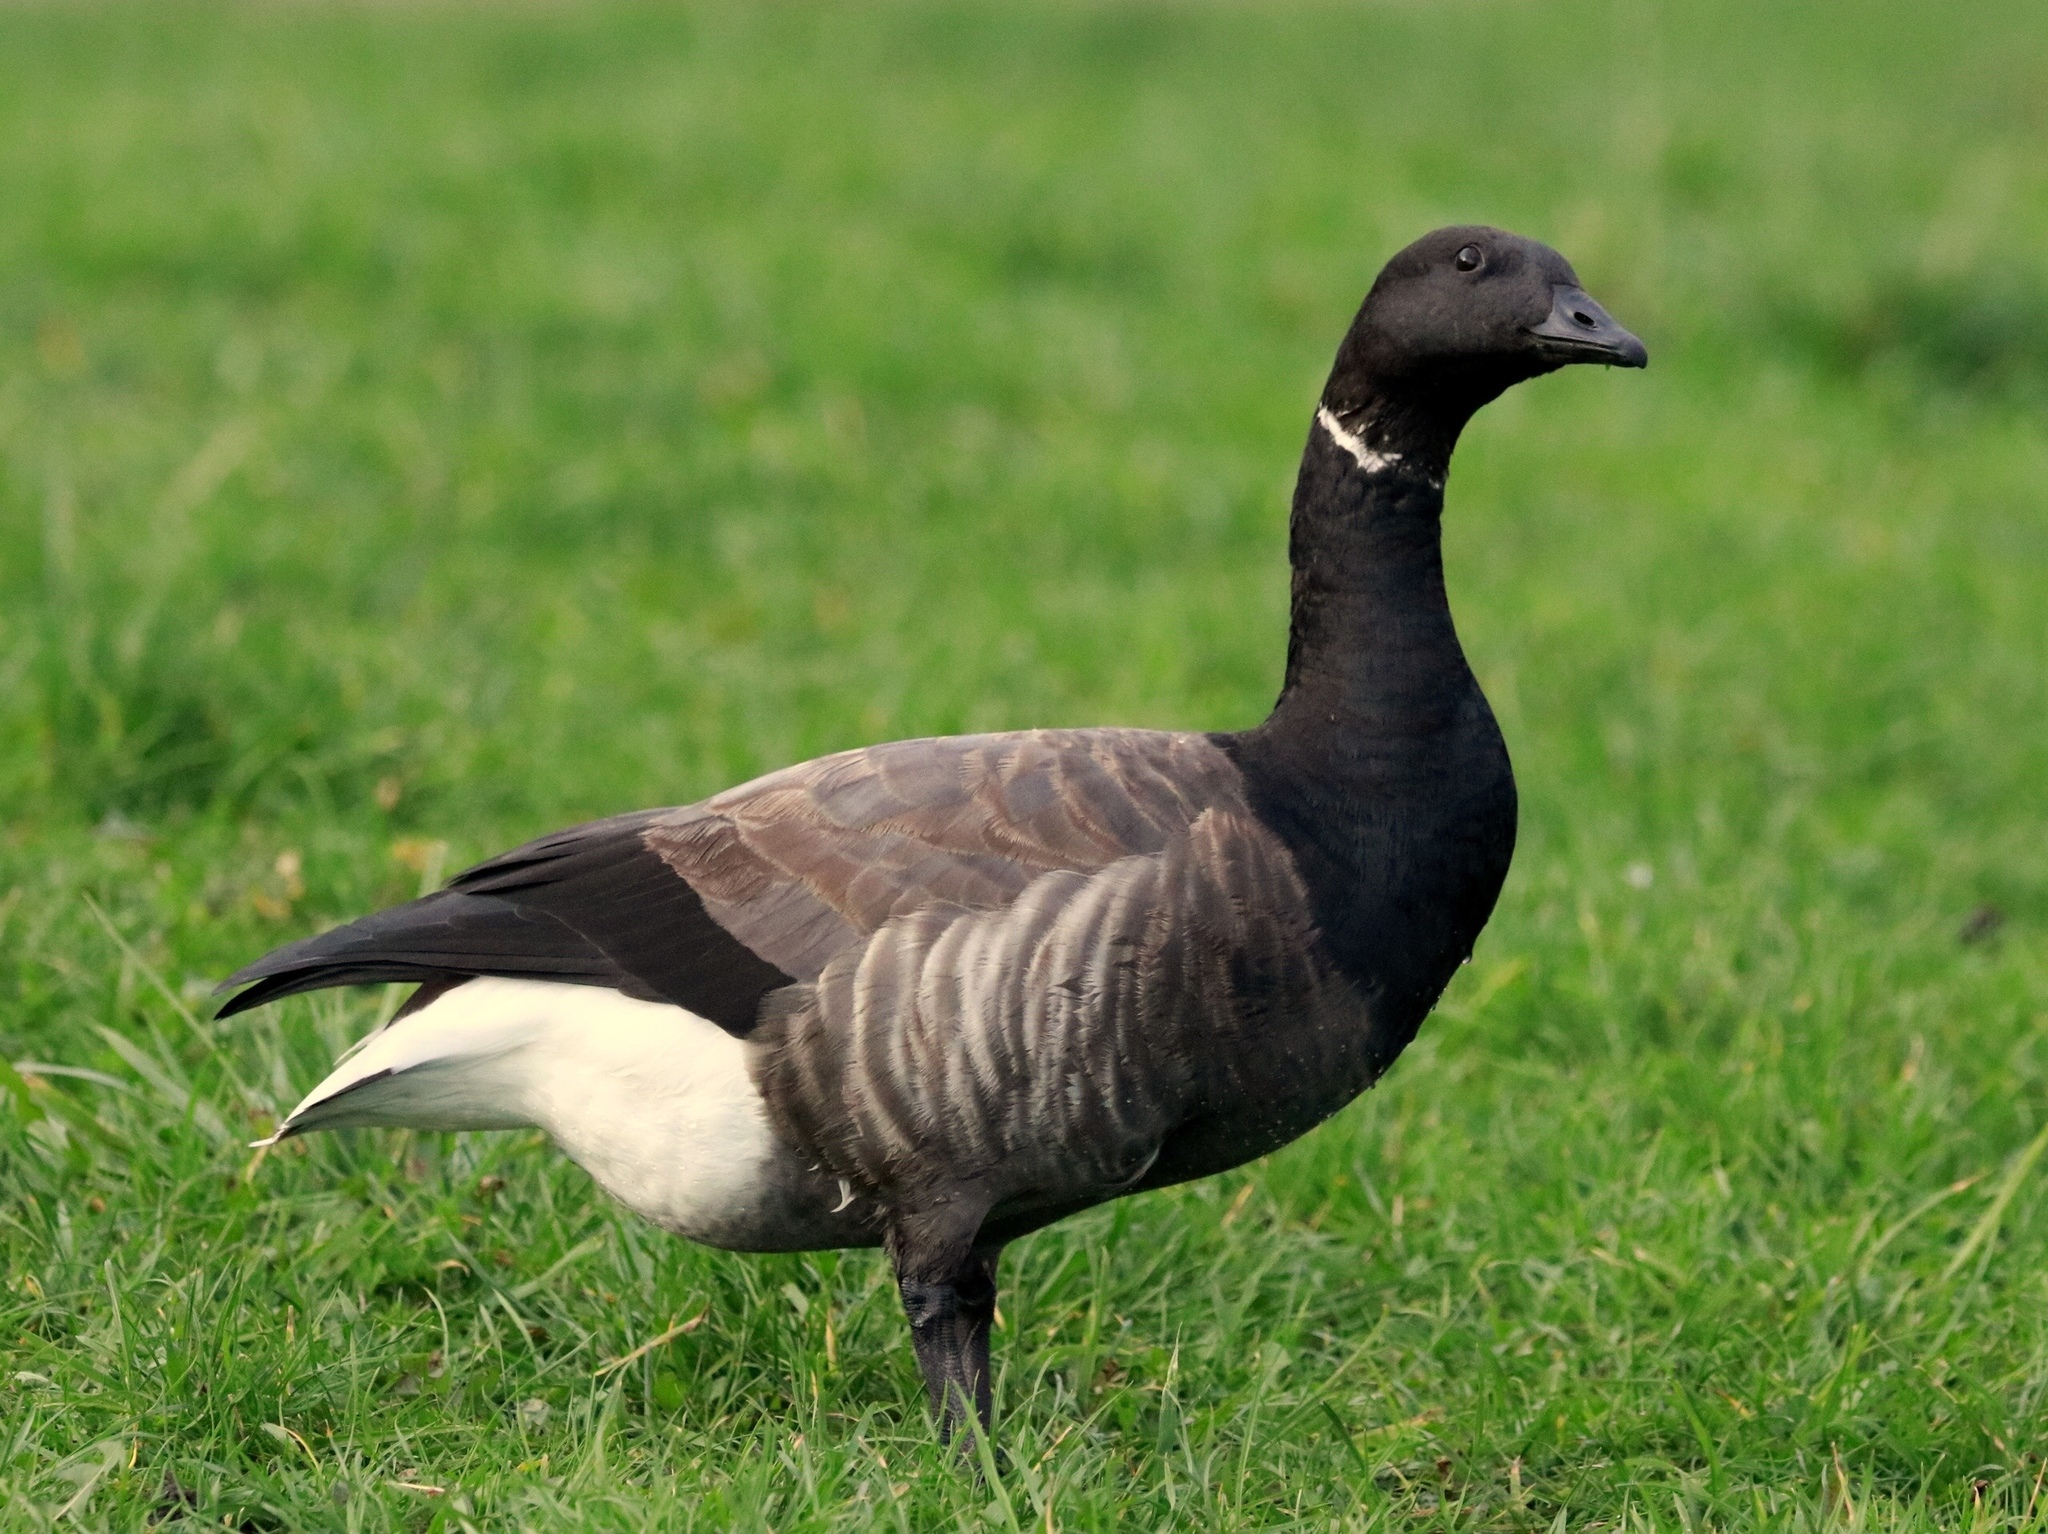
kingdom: Animalia
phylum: Chordata
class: Aves
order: Anseriformes
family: Anatidae
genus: Branta
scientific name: Branta bernicla
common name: Brant goose
